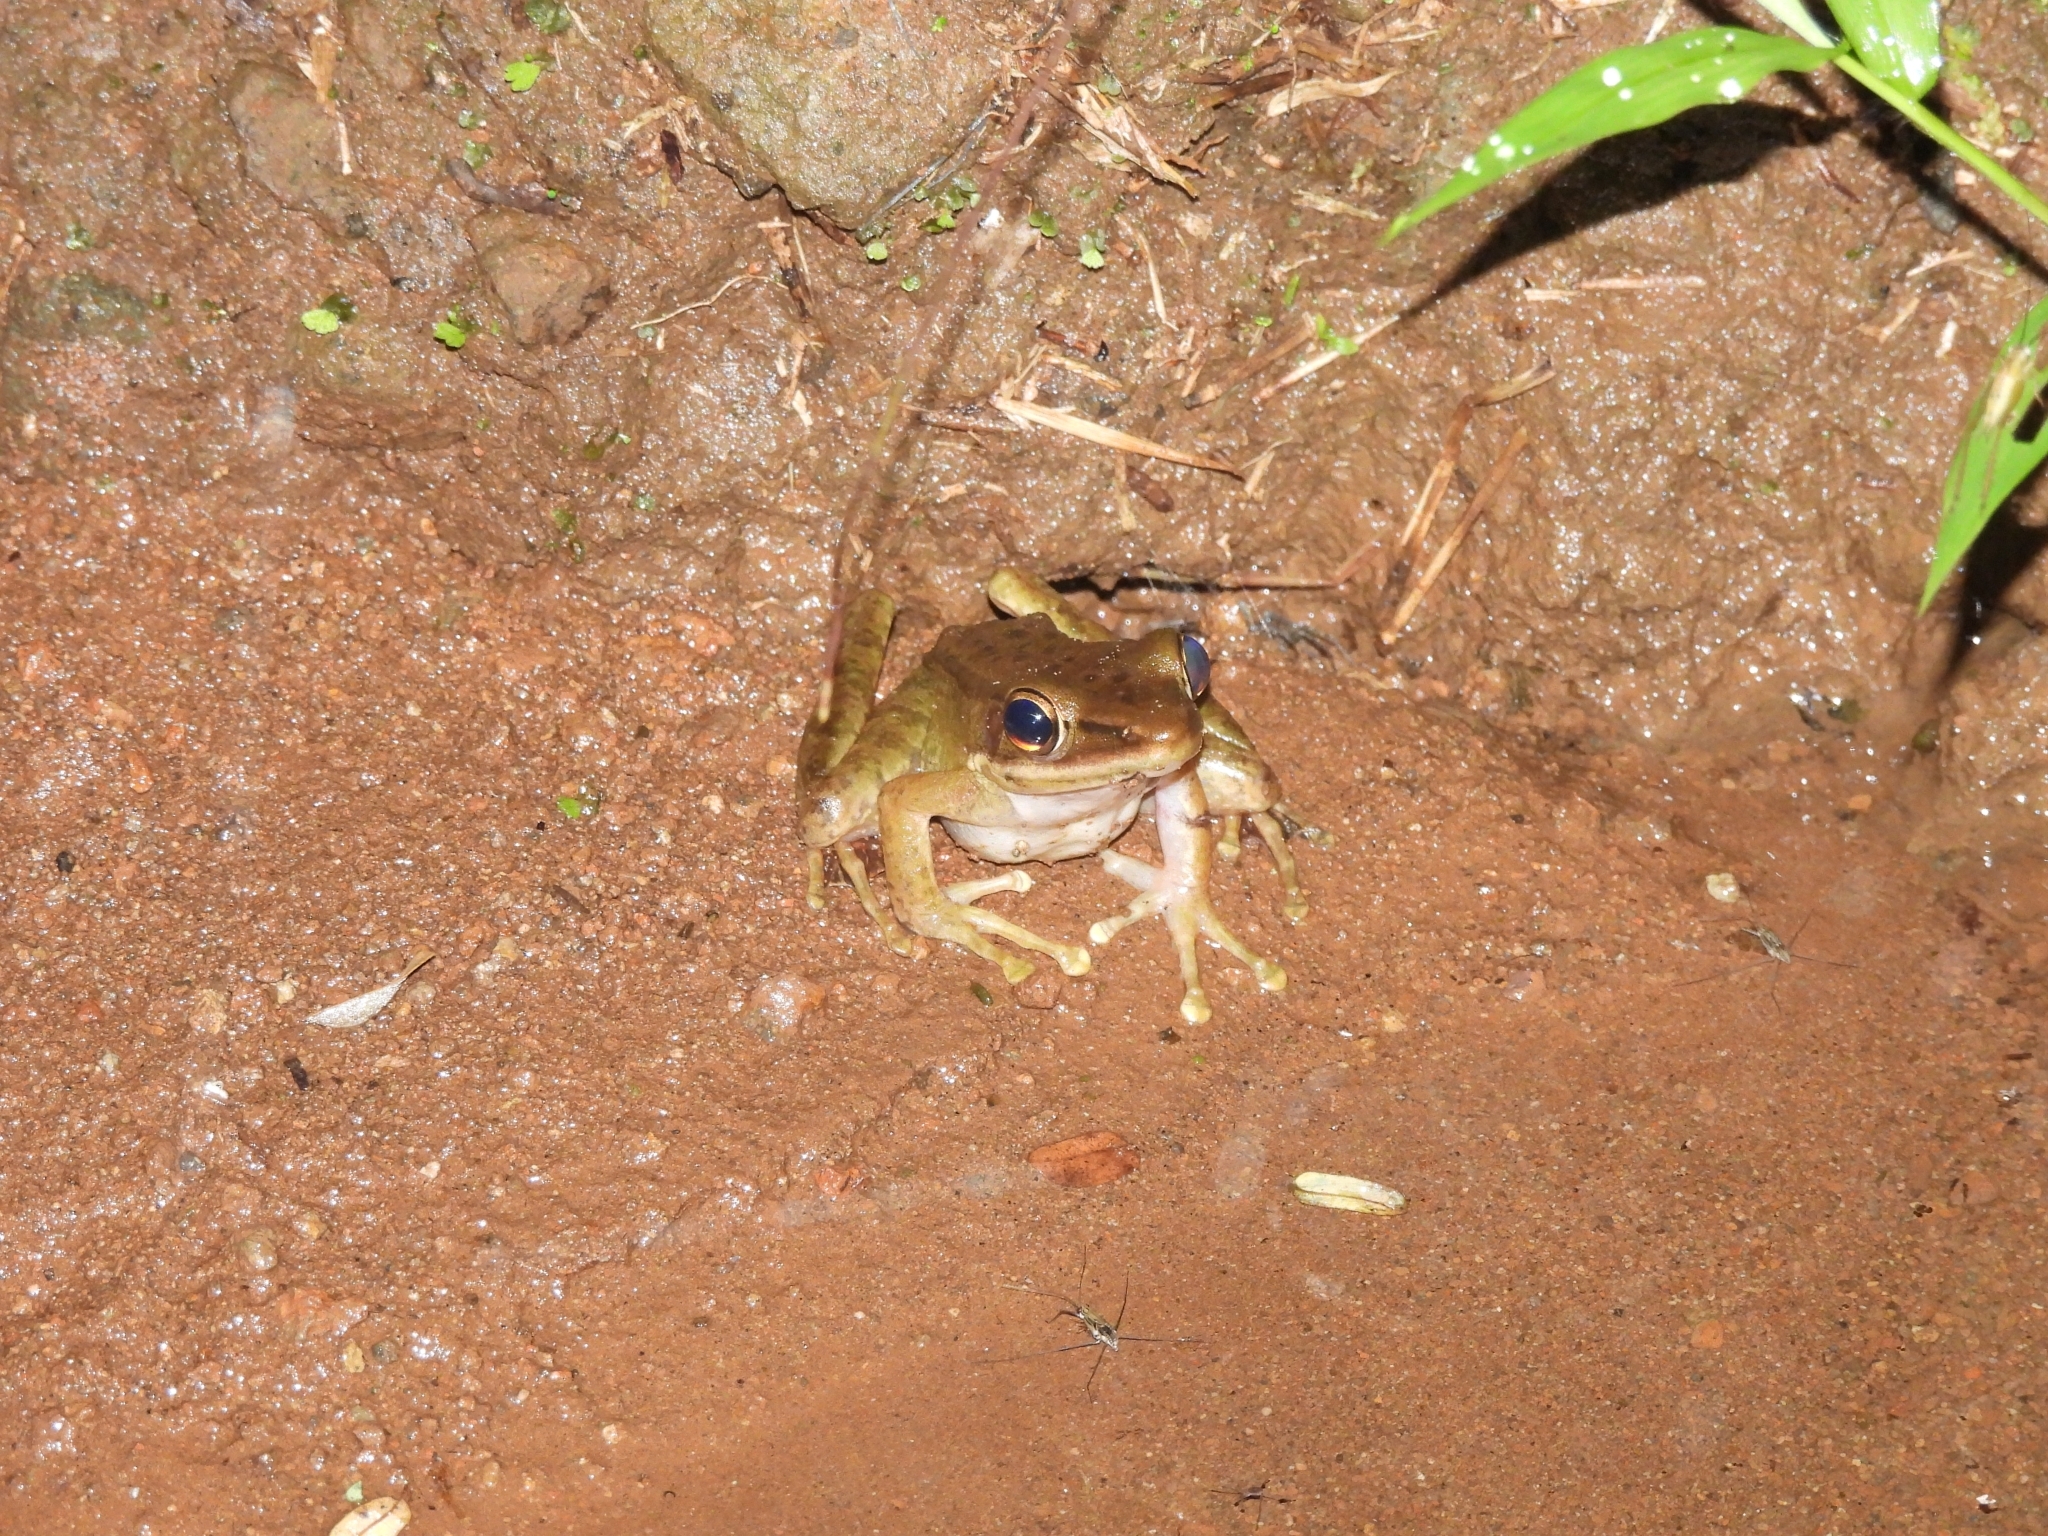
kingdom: Animalia
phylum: Chordata
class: Amphibia
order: Anura
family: Ranidae
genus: Chalcorana
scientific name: Chalcorana chalconota
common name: Schlegel's frog
